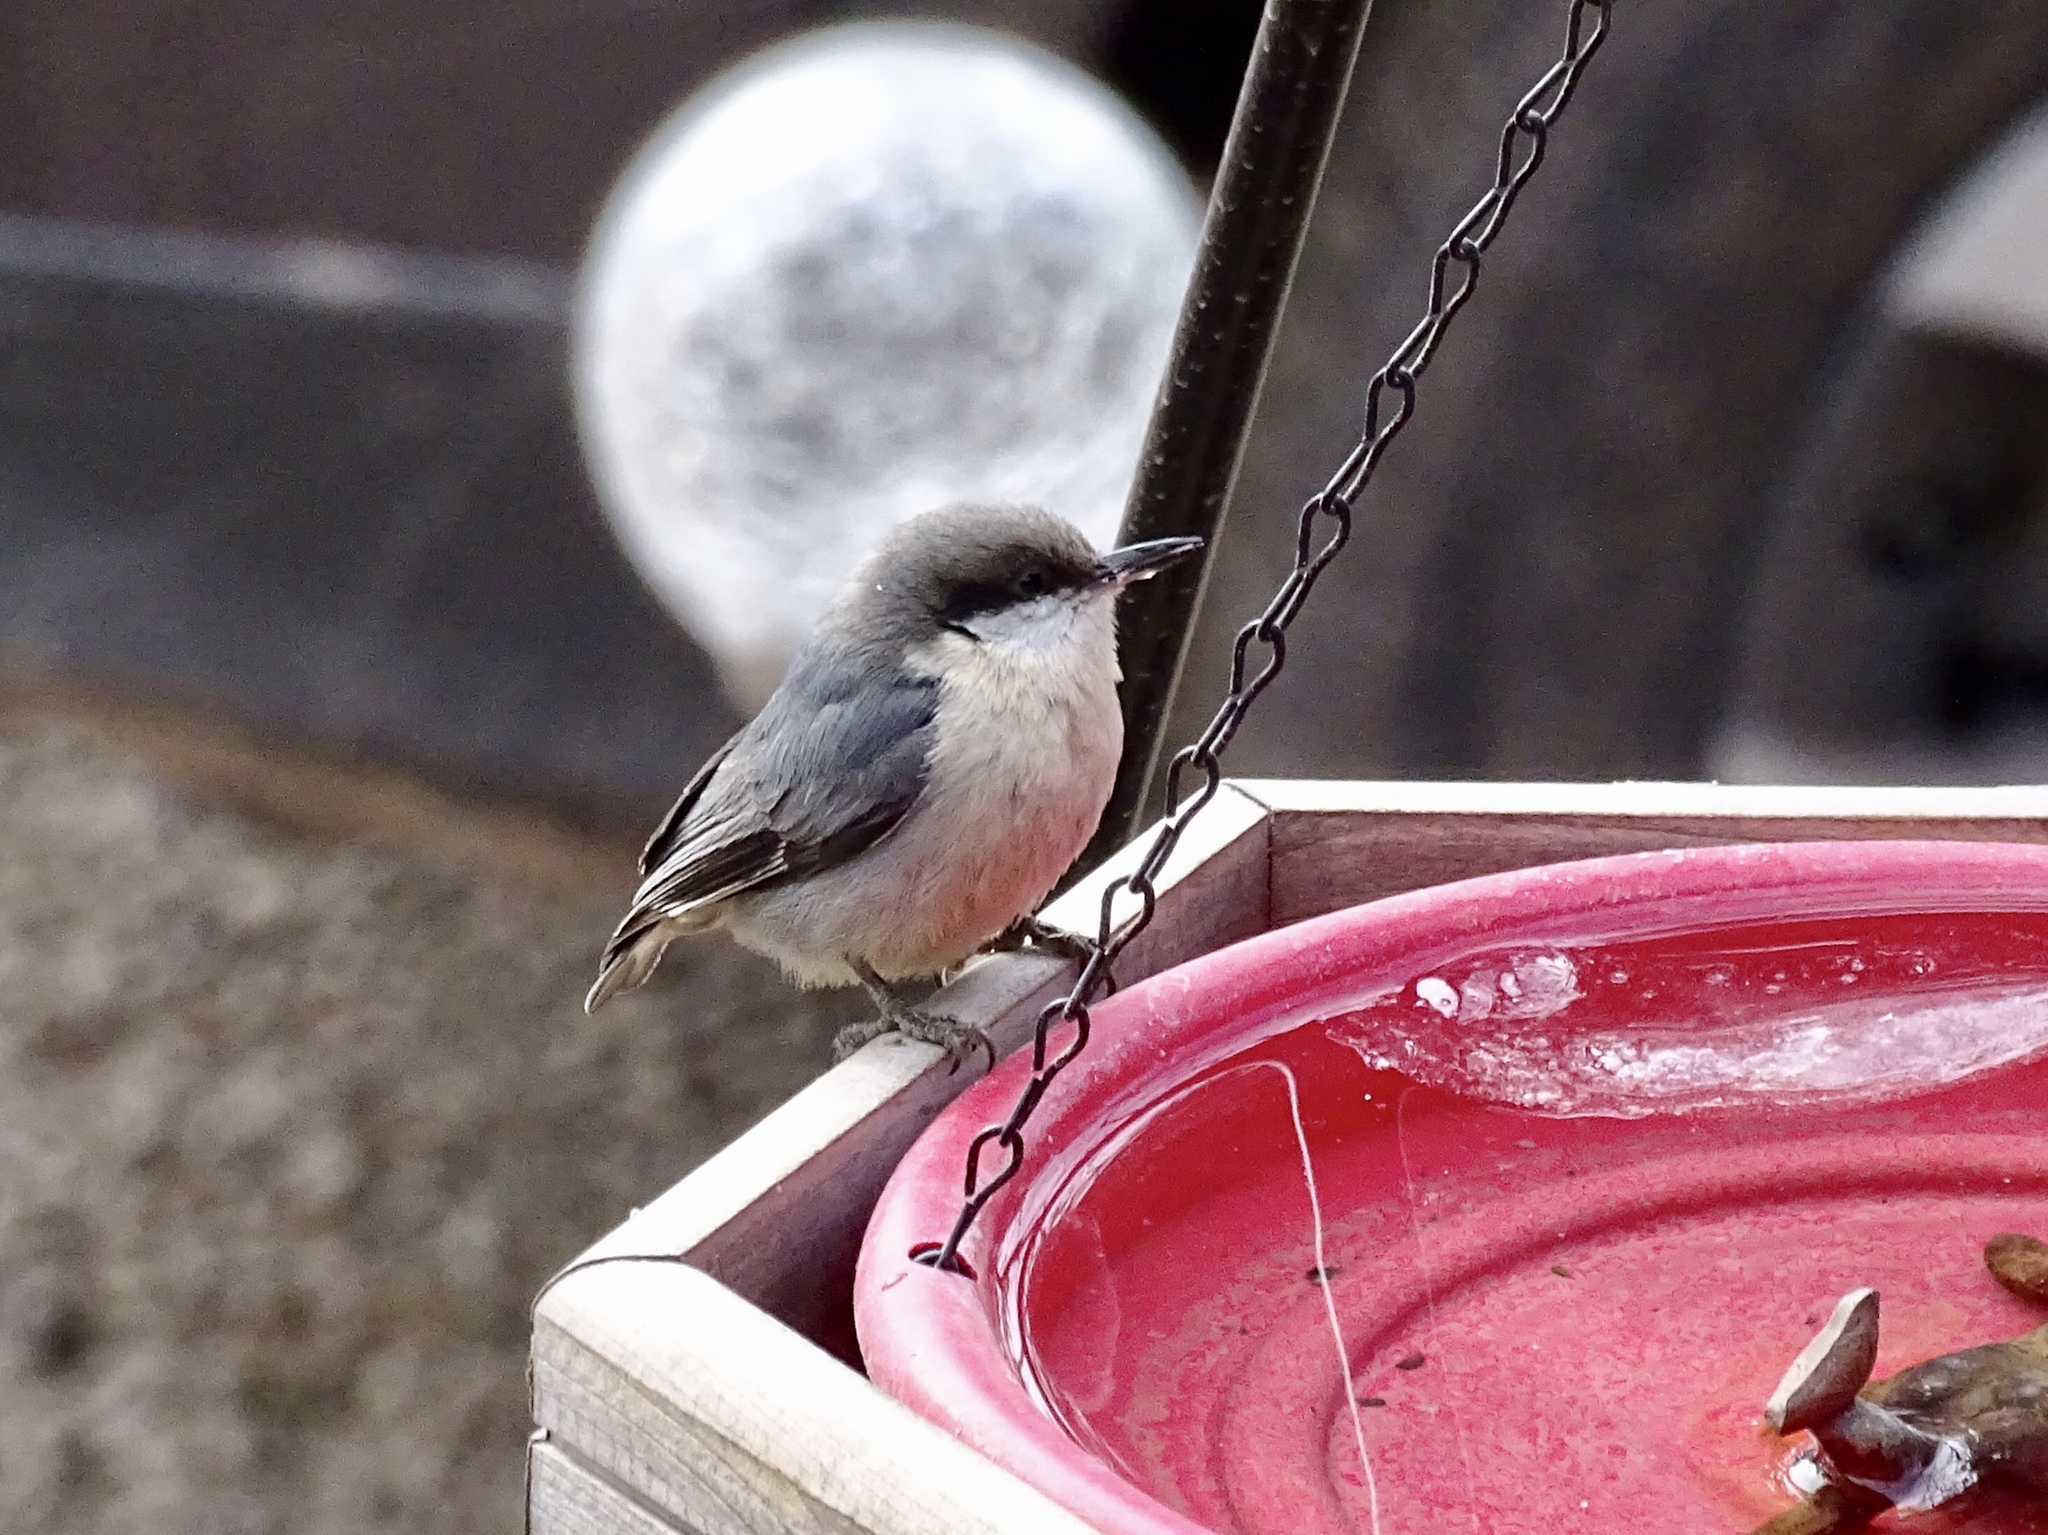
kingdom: Animalia
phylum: Chordata
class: Aves
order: Passeriformes
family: Sittidae
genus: Sitta
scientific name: Sitta pygmaea
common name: Pygmy nuthatch
